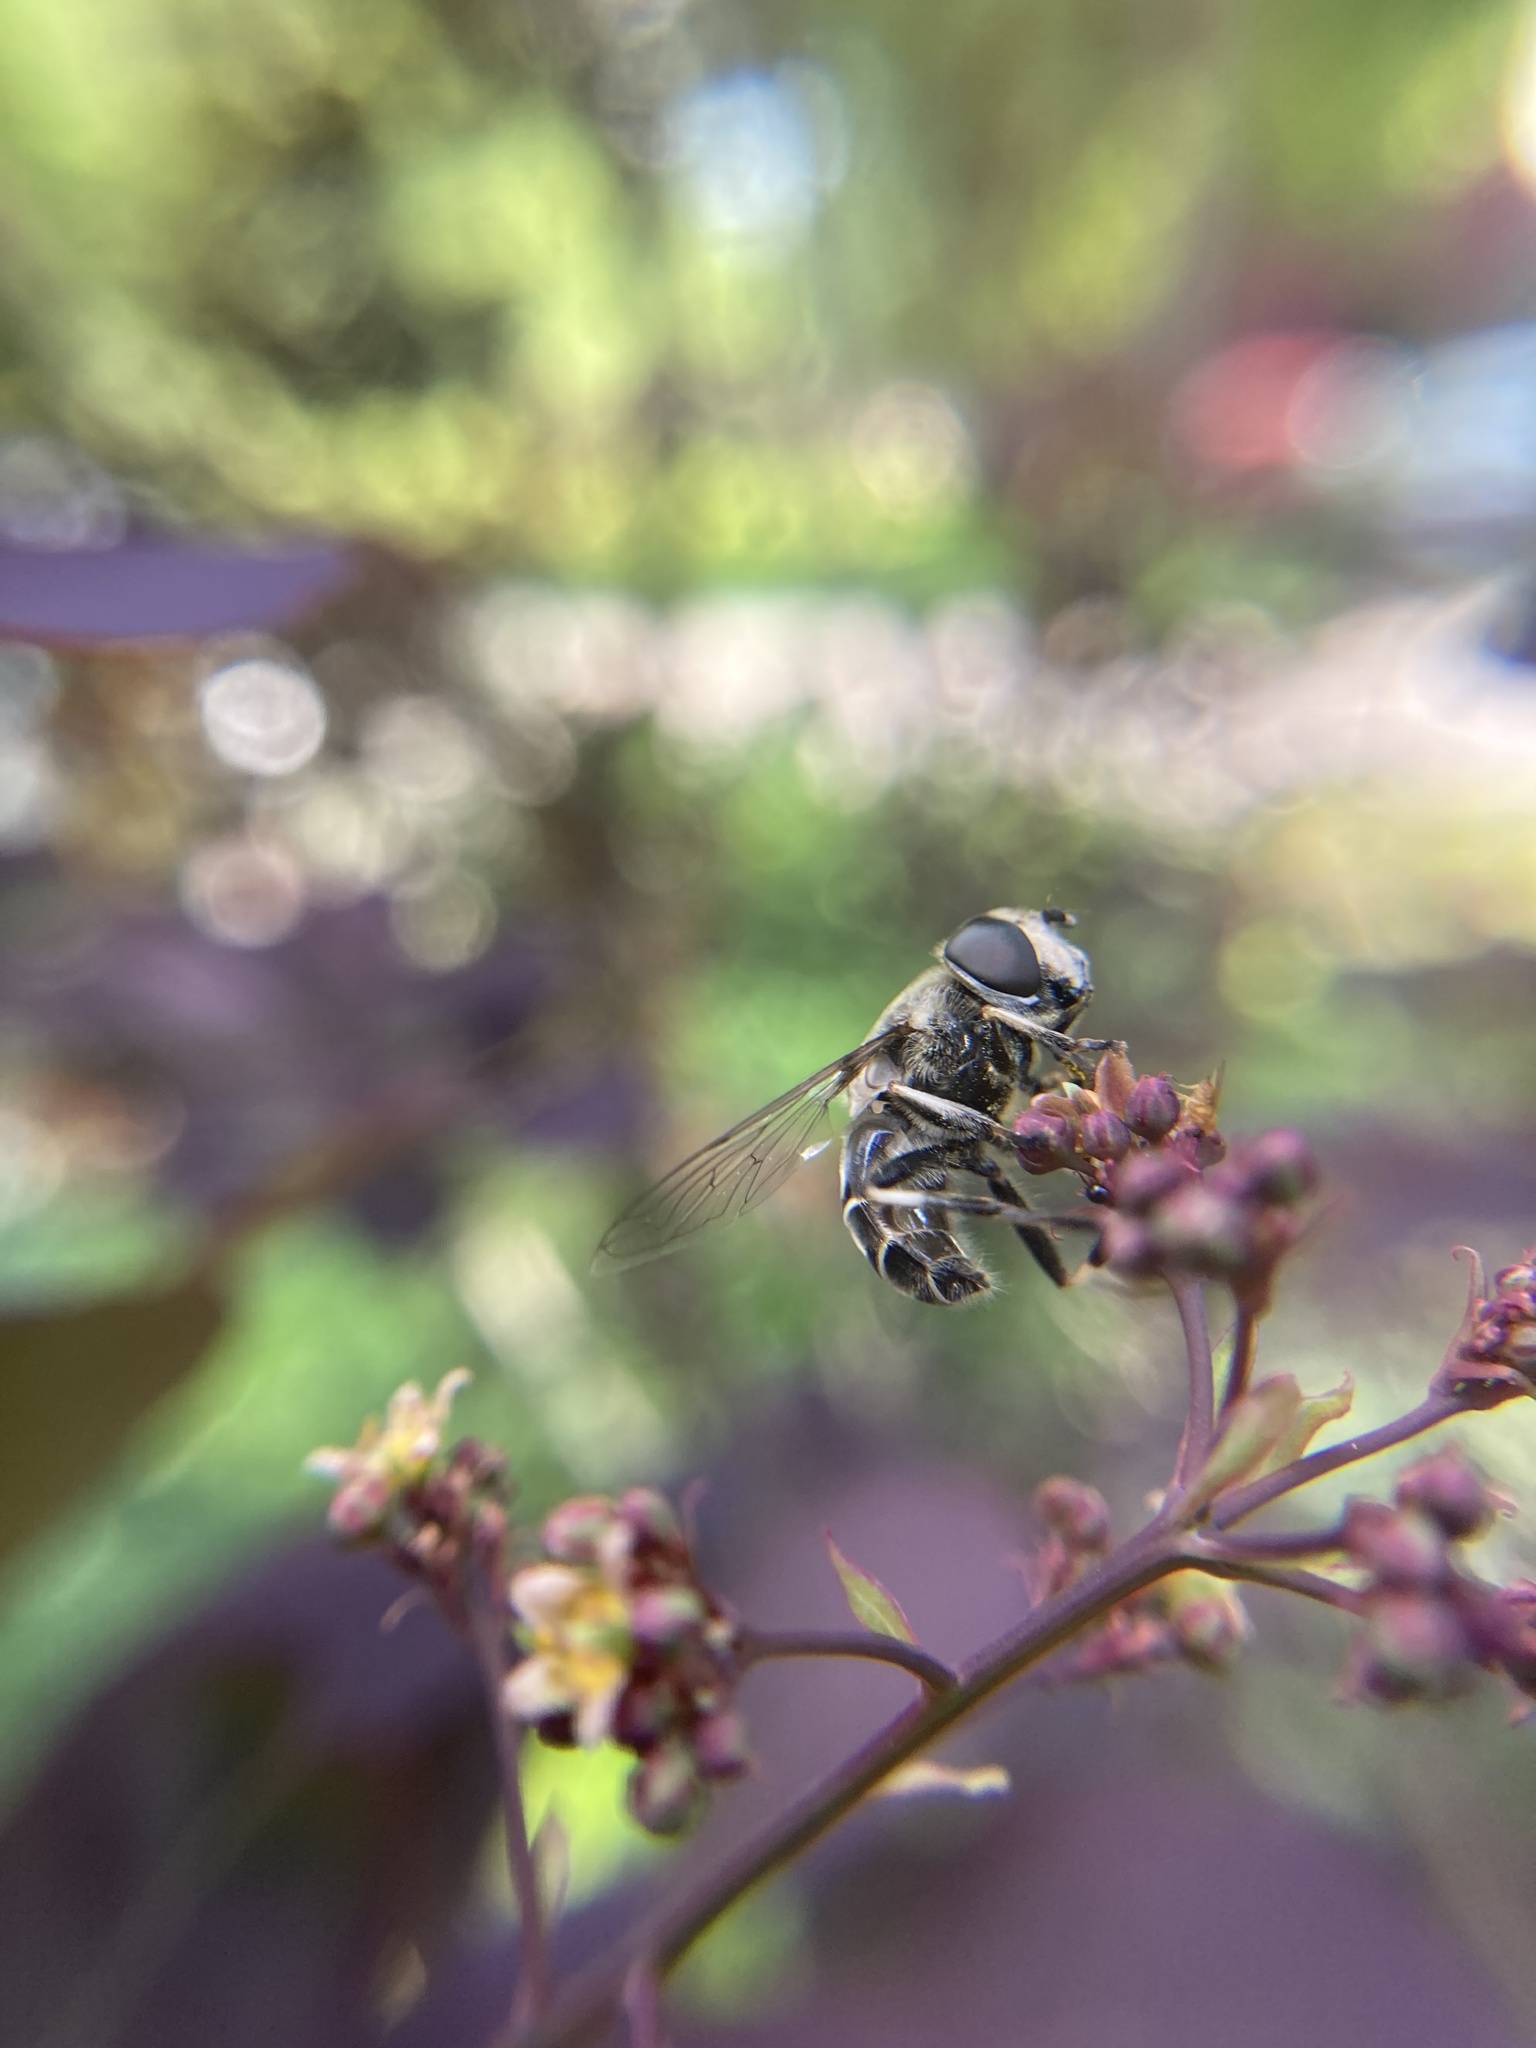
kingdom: Animalia
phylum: Arthropoda
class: Insecta
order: Diptera
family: Syrphidae
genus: Eristalis
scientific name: Eristalis dimidiata
